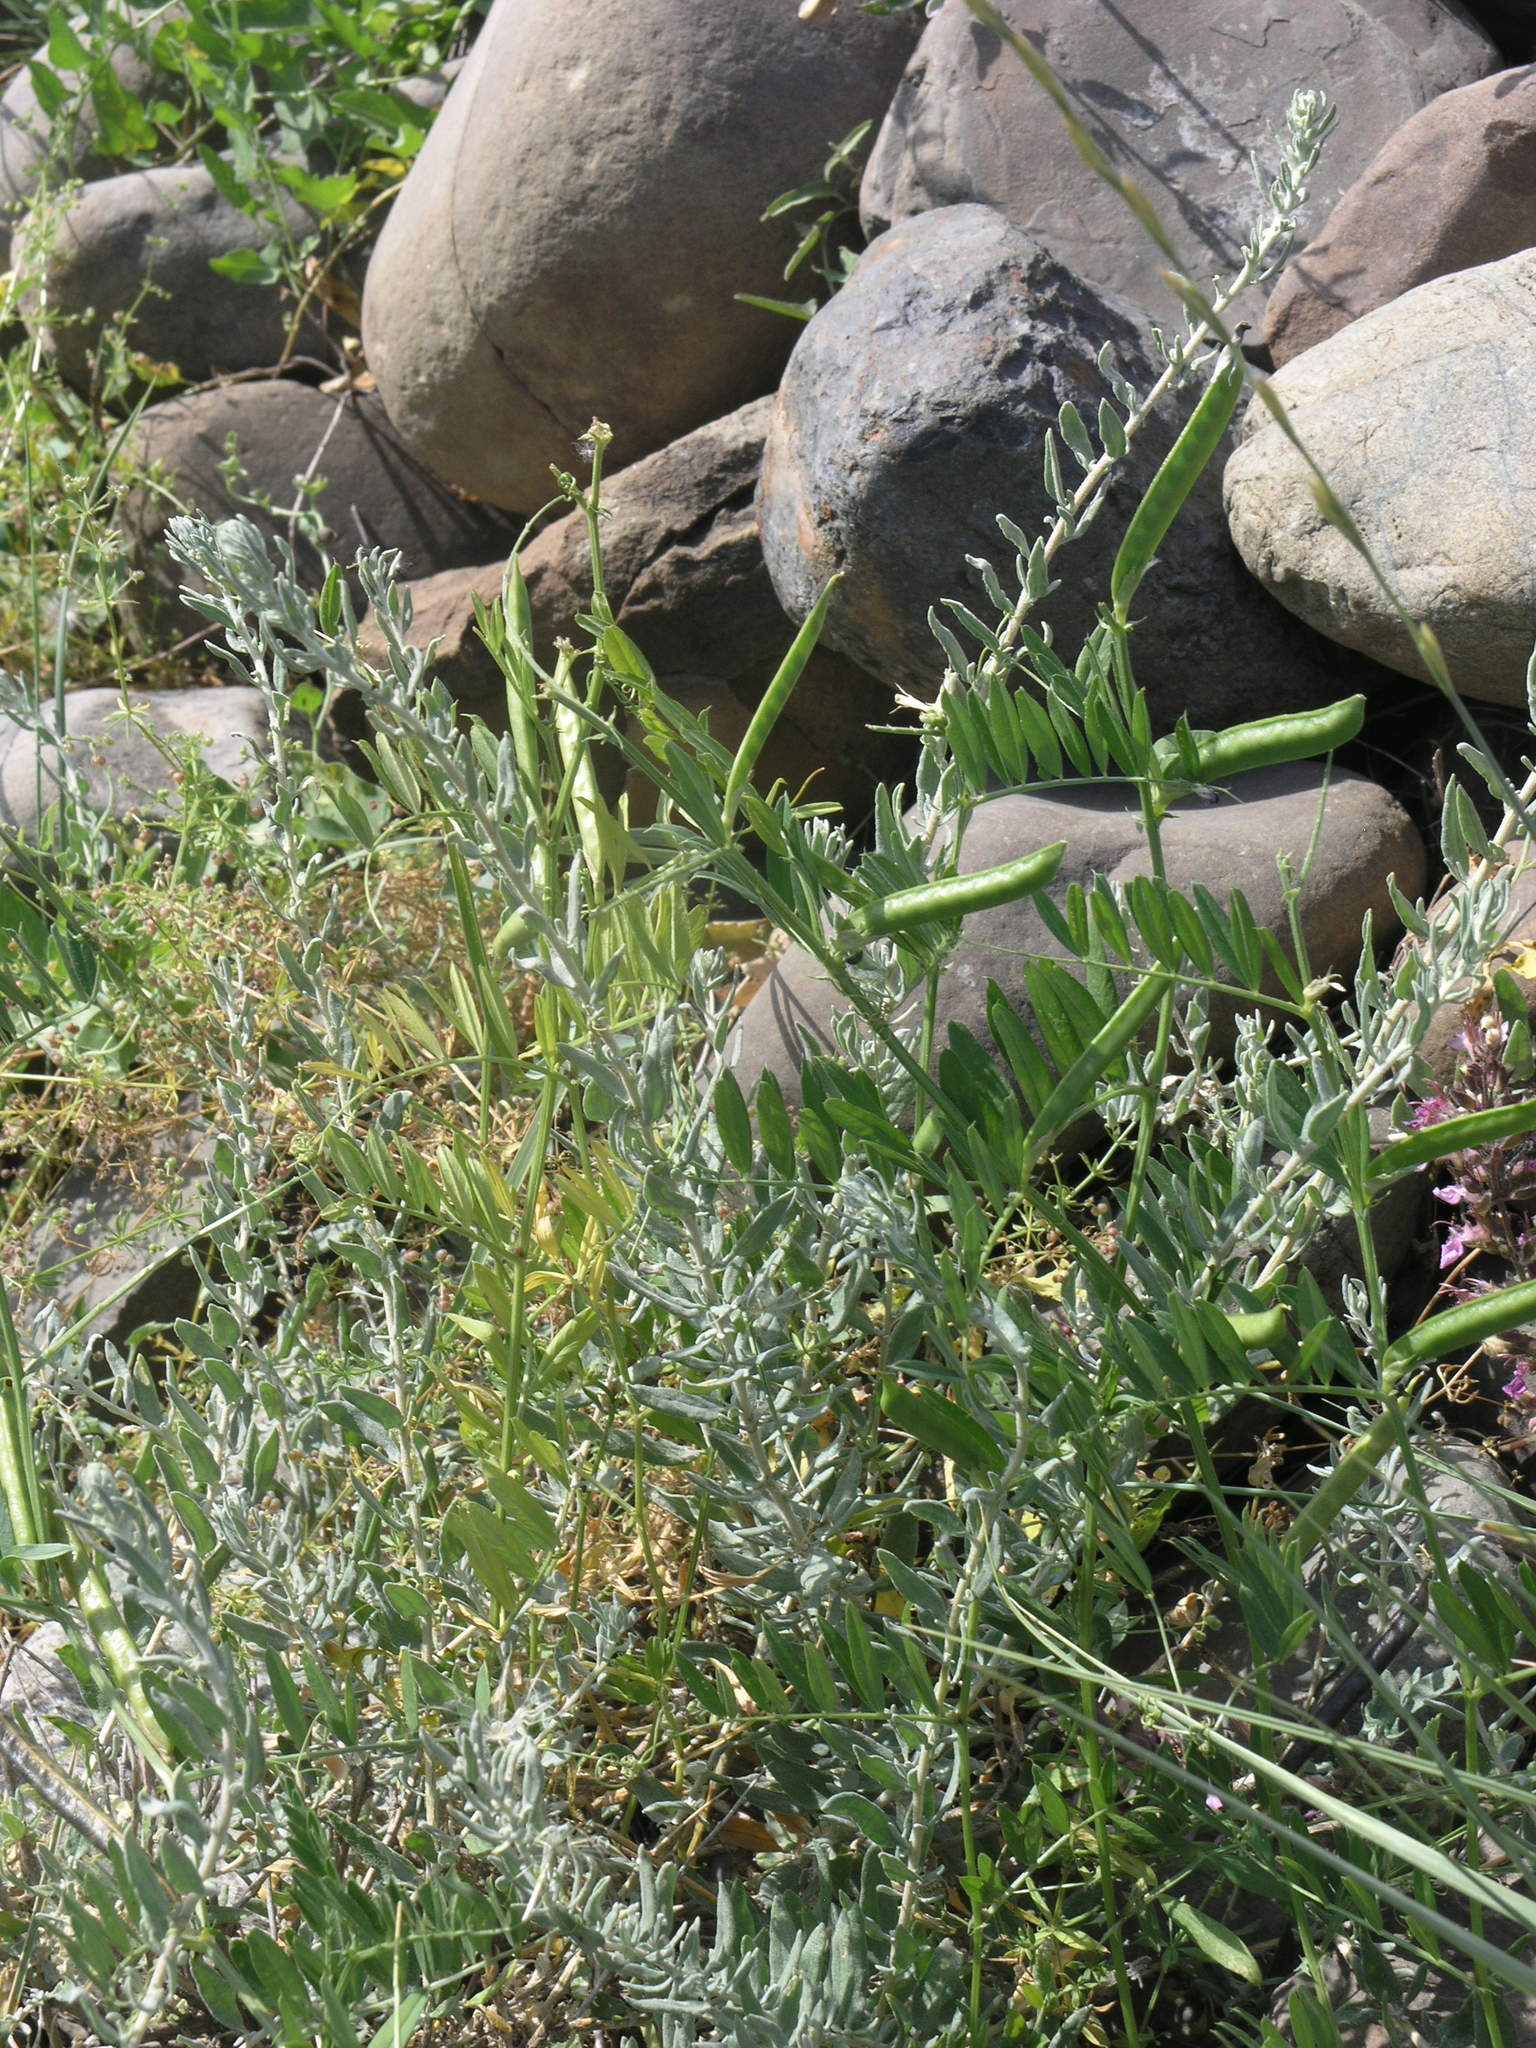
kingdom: Plantae
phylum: Tracheophyta
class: Magnoliopsida
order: Fabales
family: Fabaceae
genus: Vicia
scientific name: Vicia sativa
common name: Garden vetch
